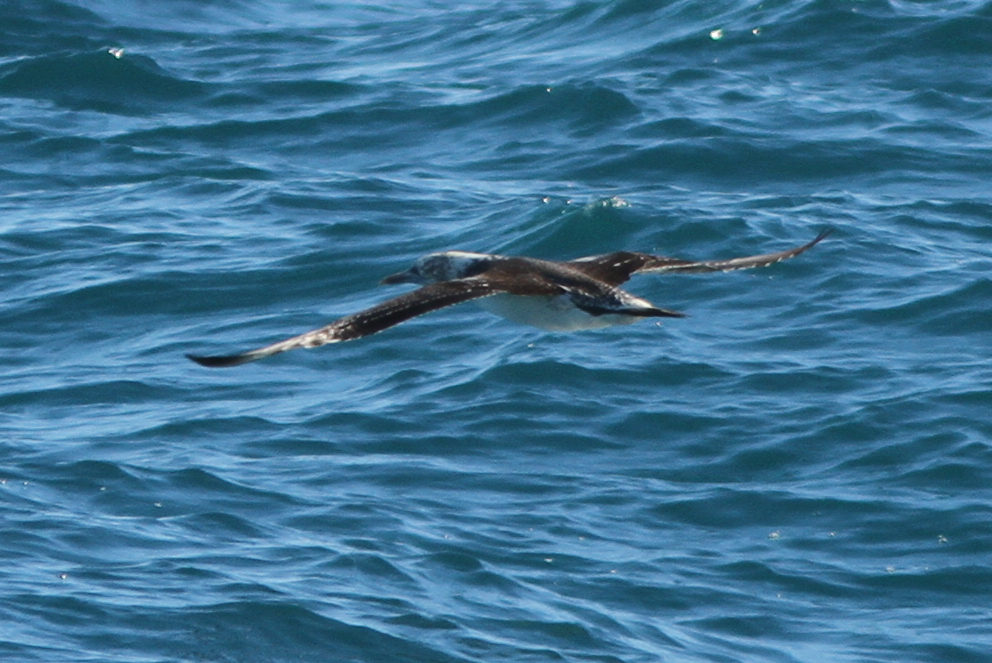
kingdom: Animalia
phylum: Chordata
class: Aves
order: Suliformes
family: Sulidae
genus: Morus
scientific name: Morus serrator
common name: Australasian gannet
